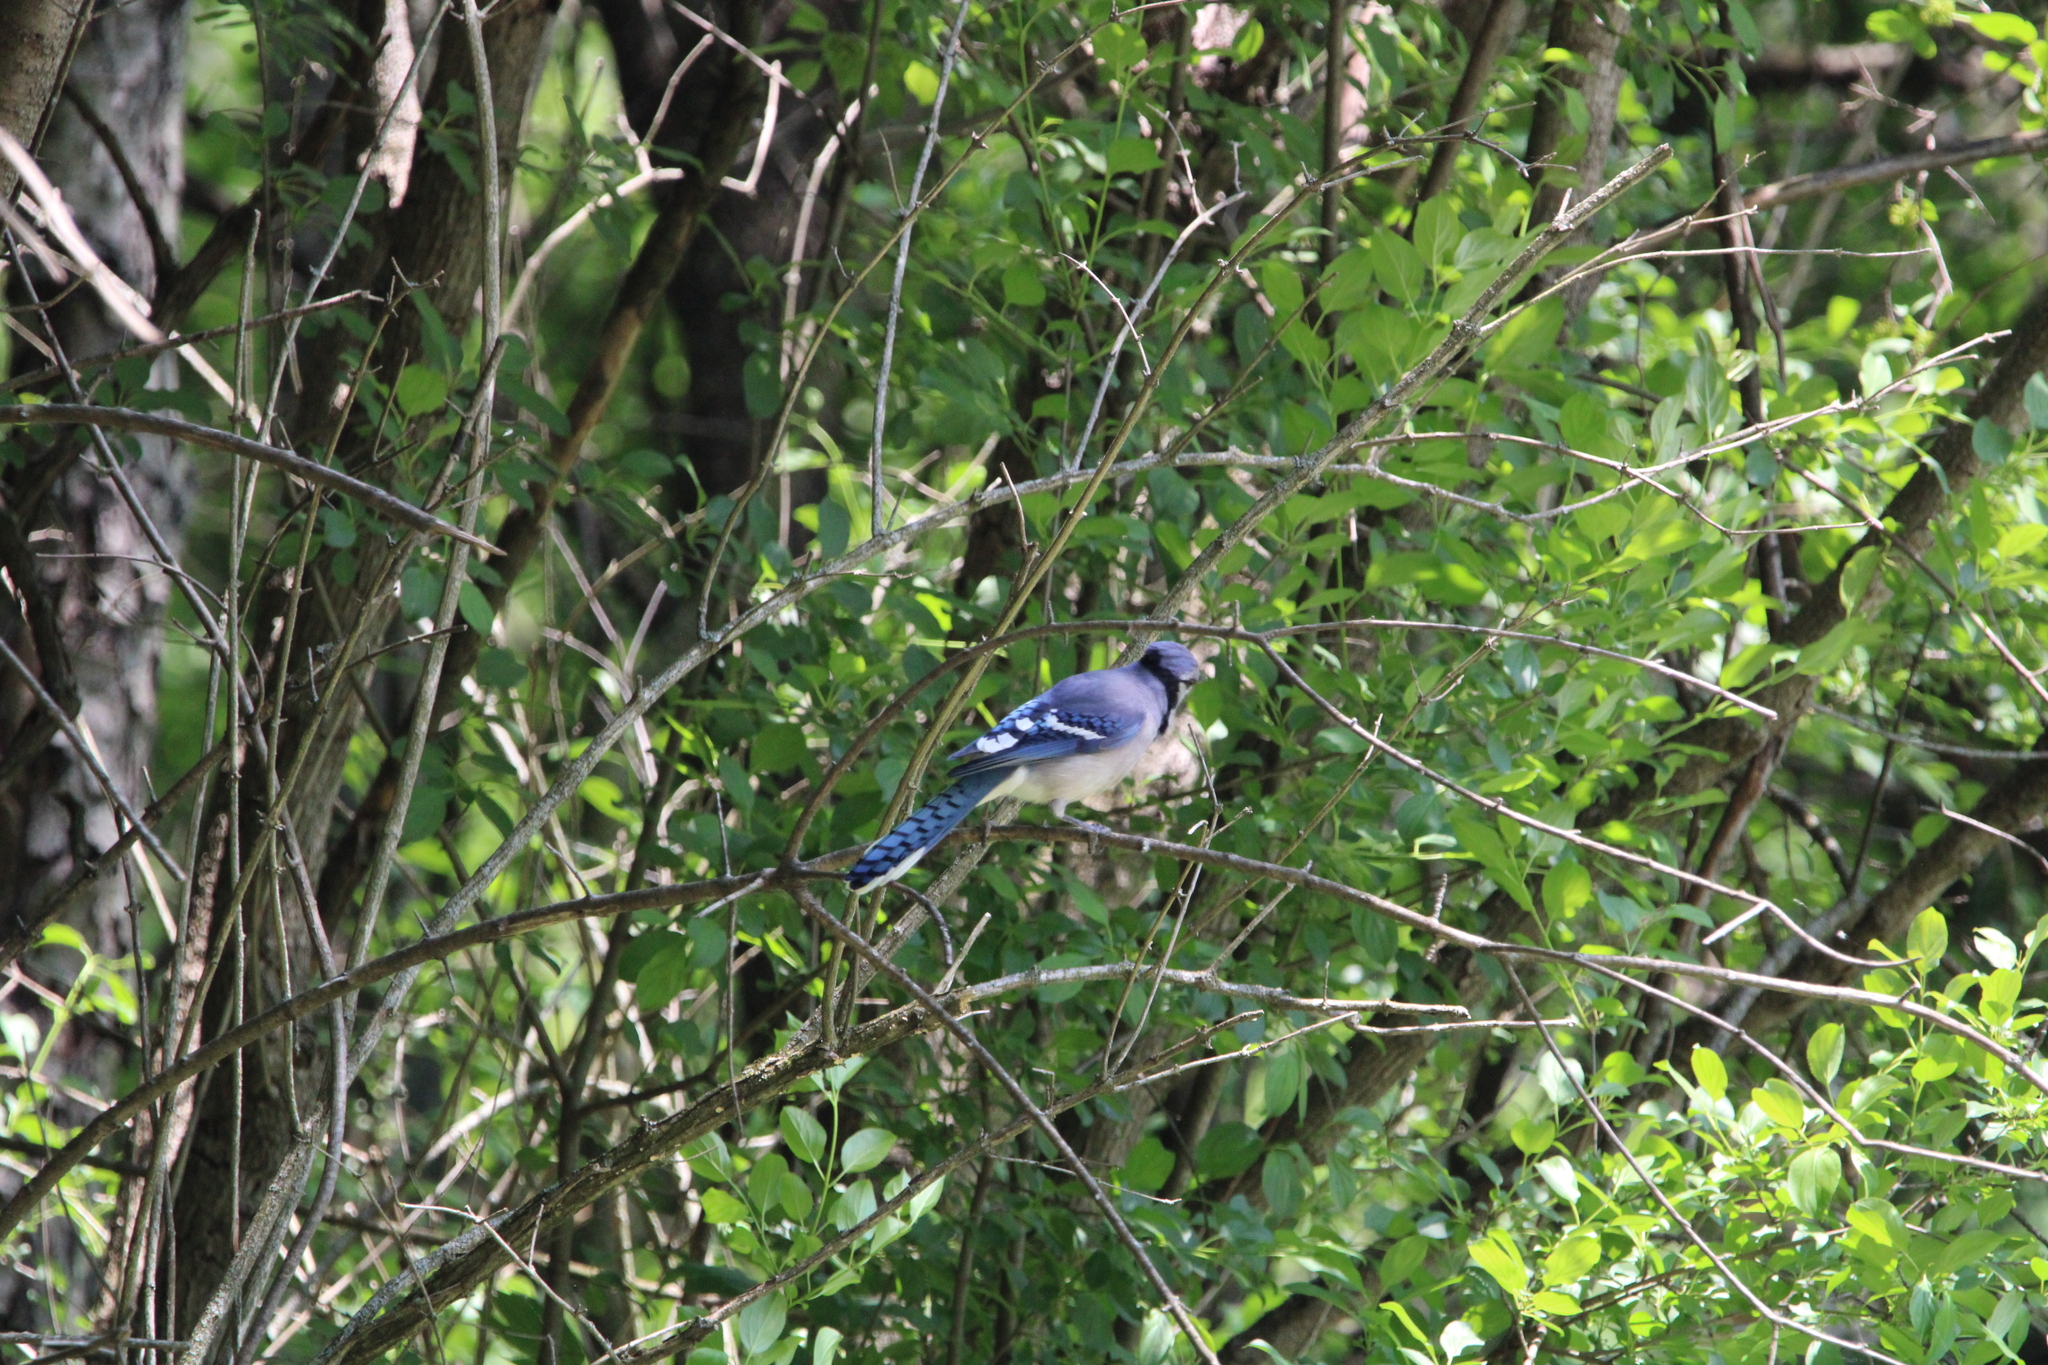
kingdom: Animalia
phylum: Chordata
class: Aves
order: Passeriformes
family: Corvidae
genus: Cyanocitta
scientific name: Cyanocitta cristata
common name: Blue jay
